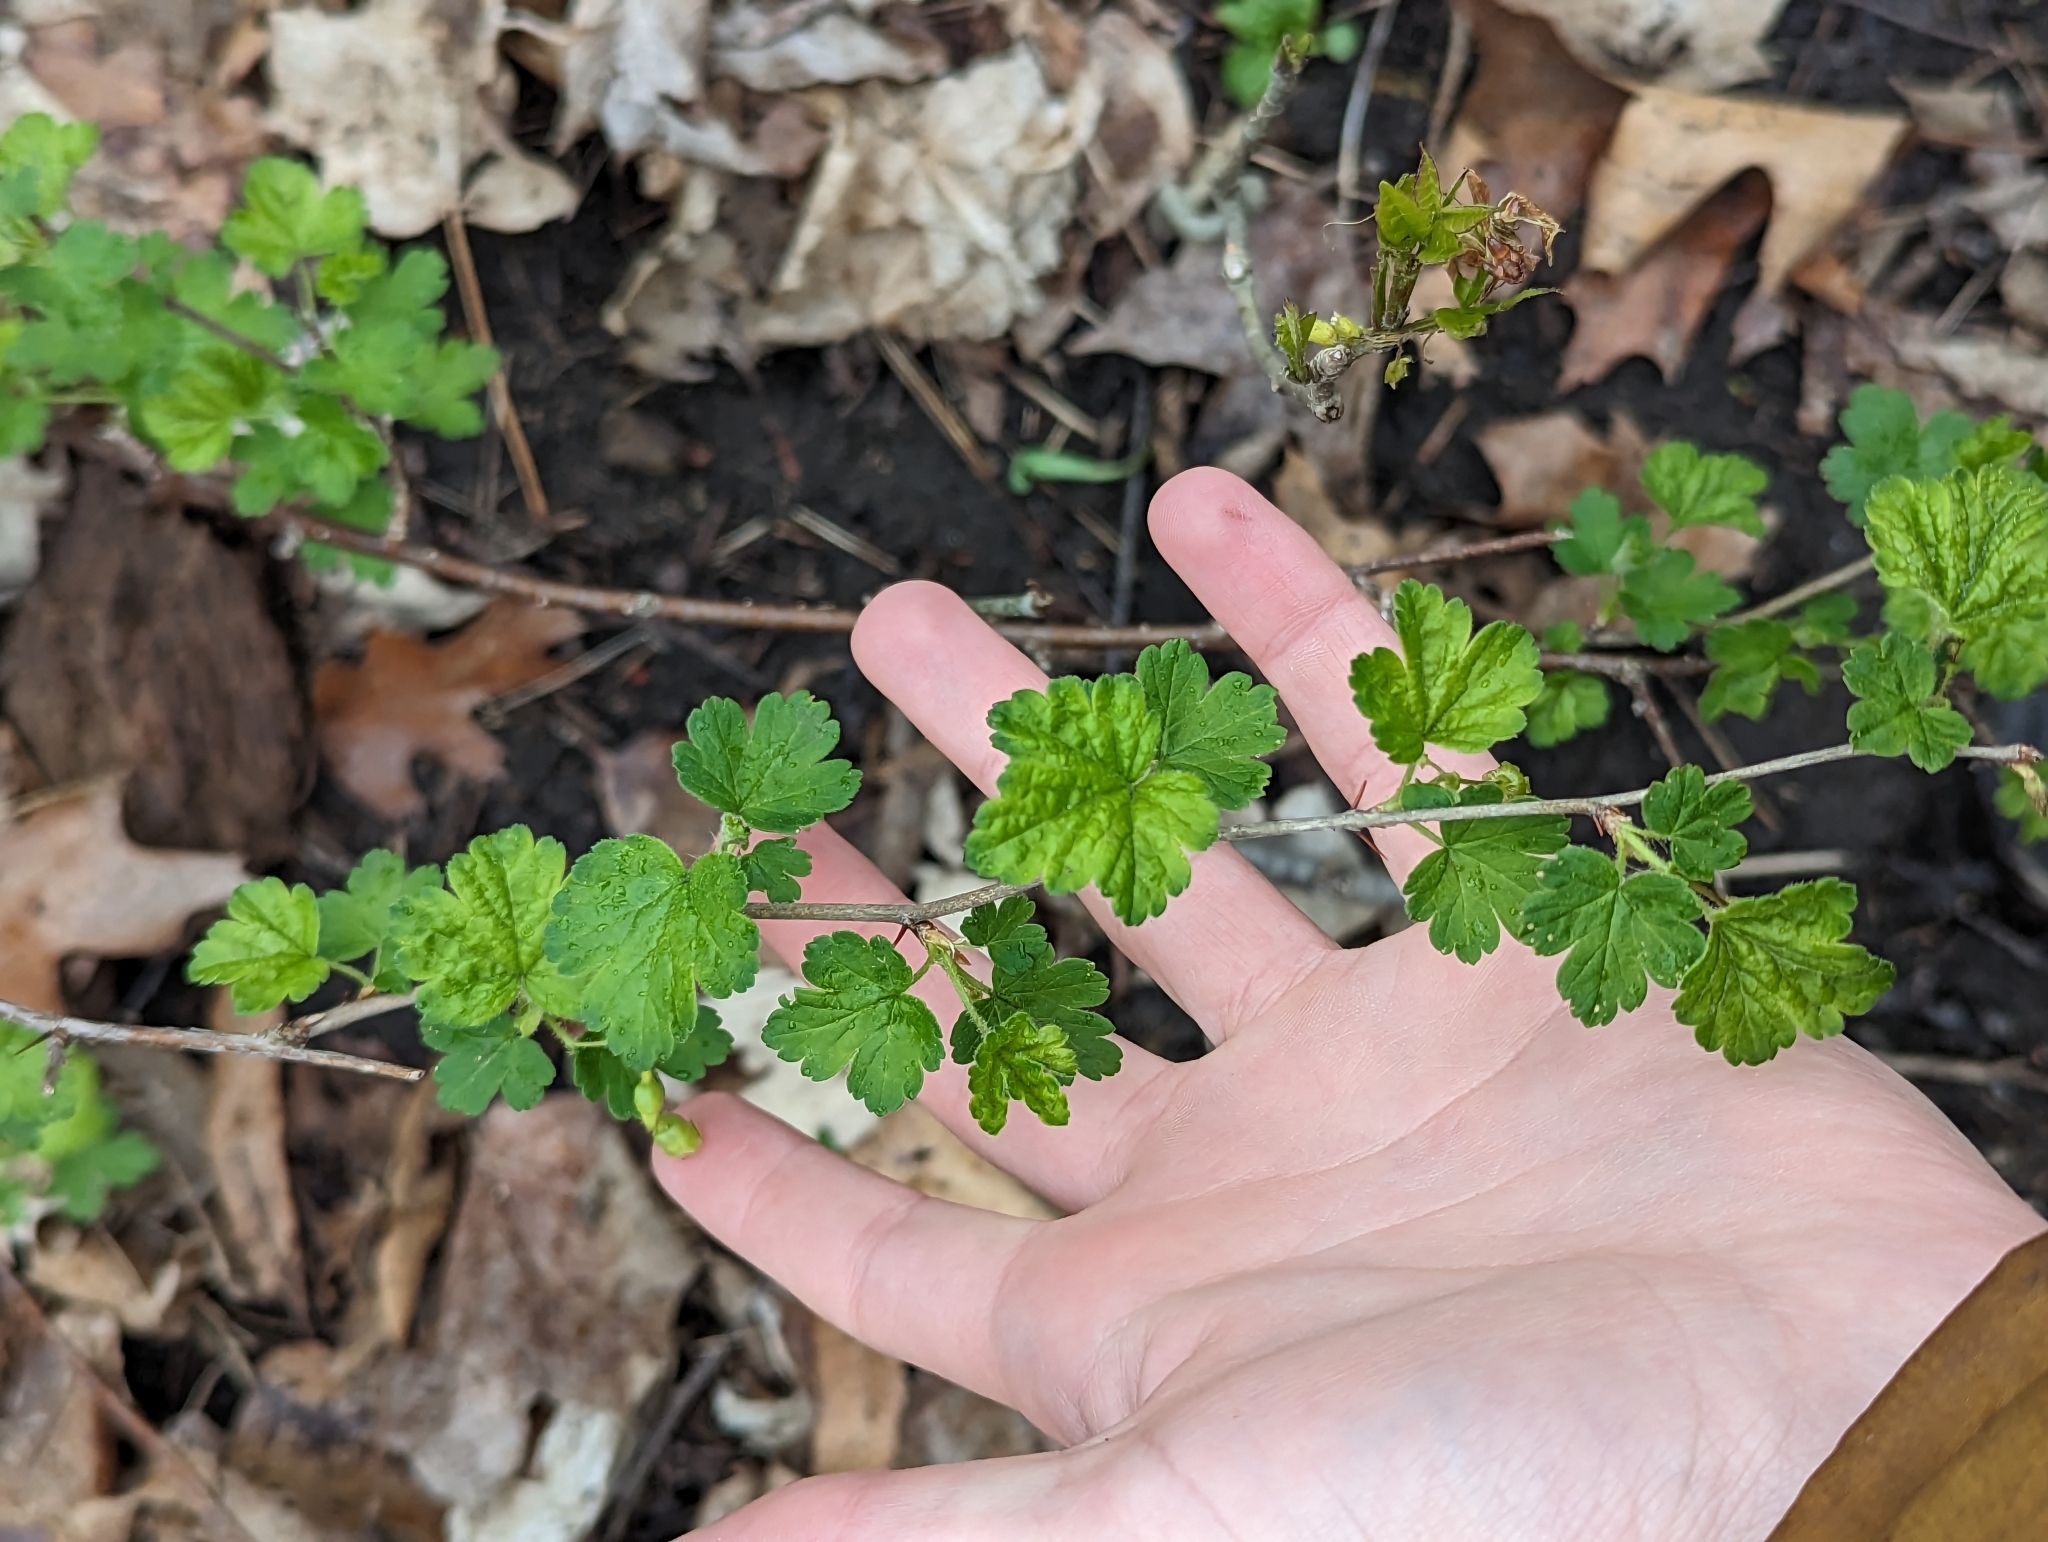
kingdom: Plantae
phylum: Tracheophyta
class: Magnoliopsida
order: Saxifragales
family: Grossulariaceae
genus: Ribes
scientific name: Ribes cynosbati
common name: American gooseberry
